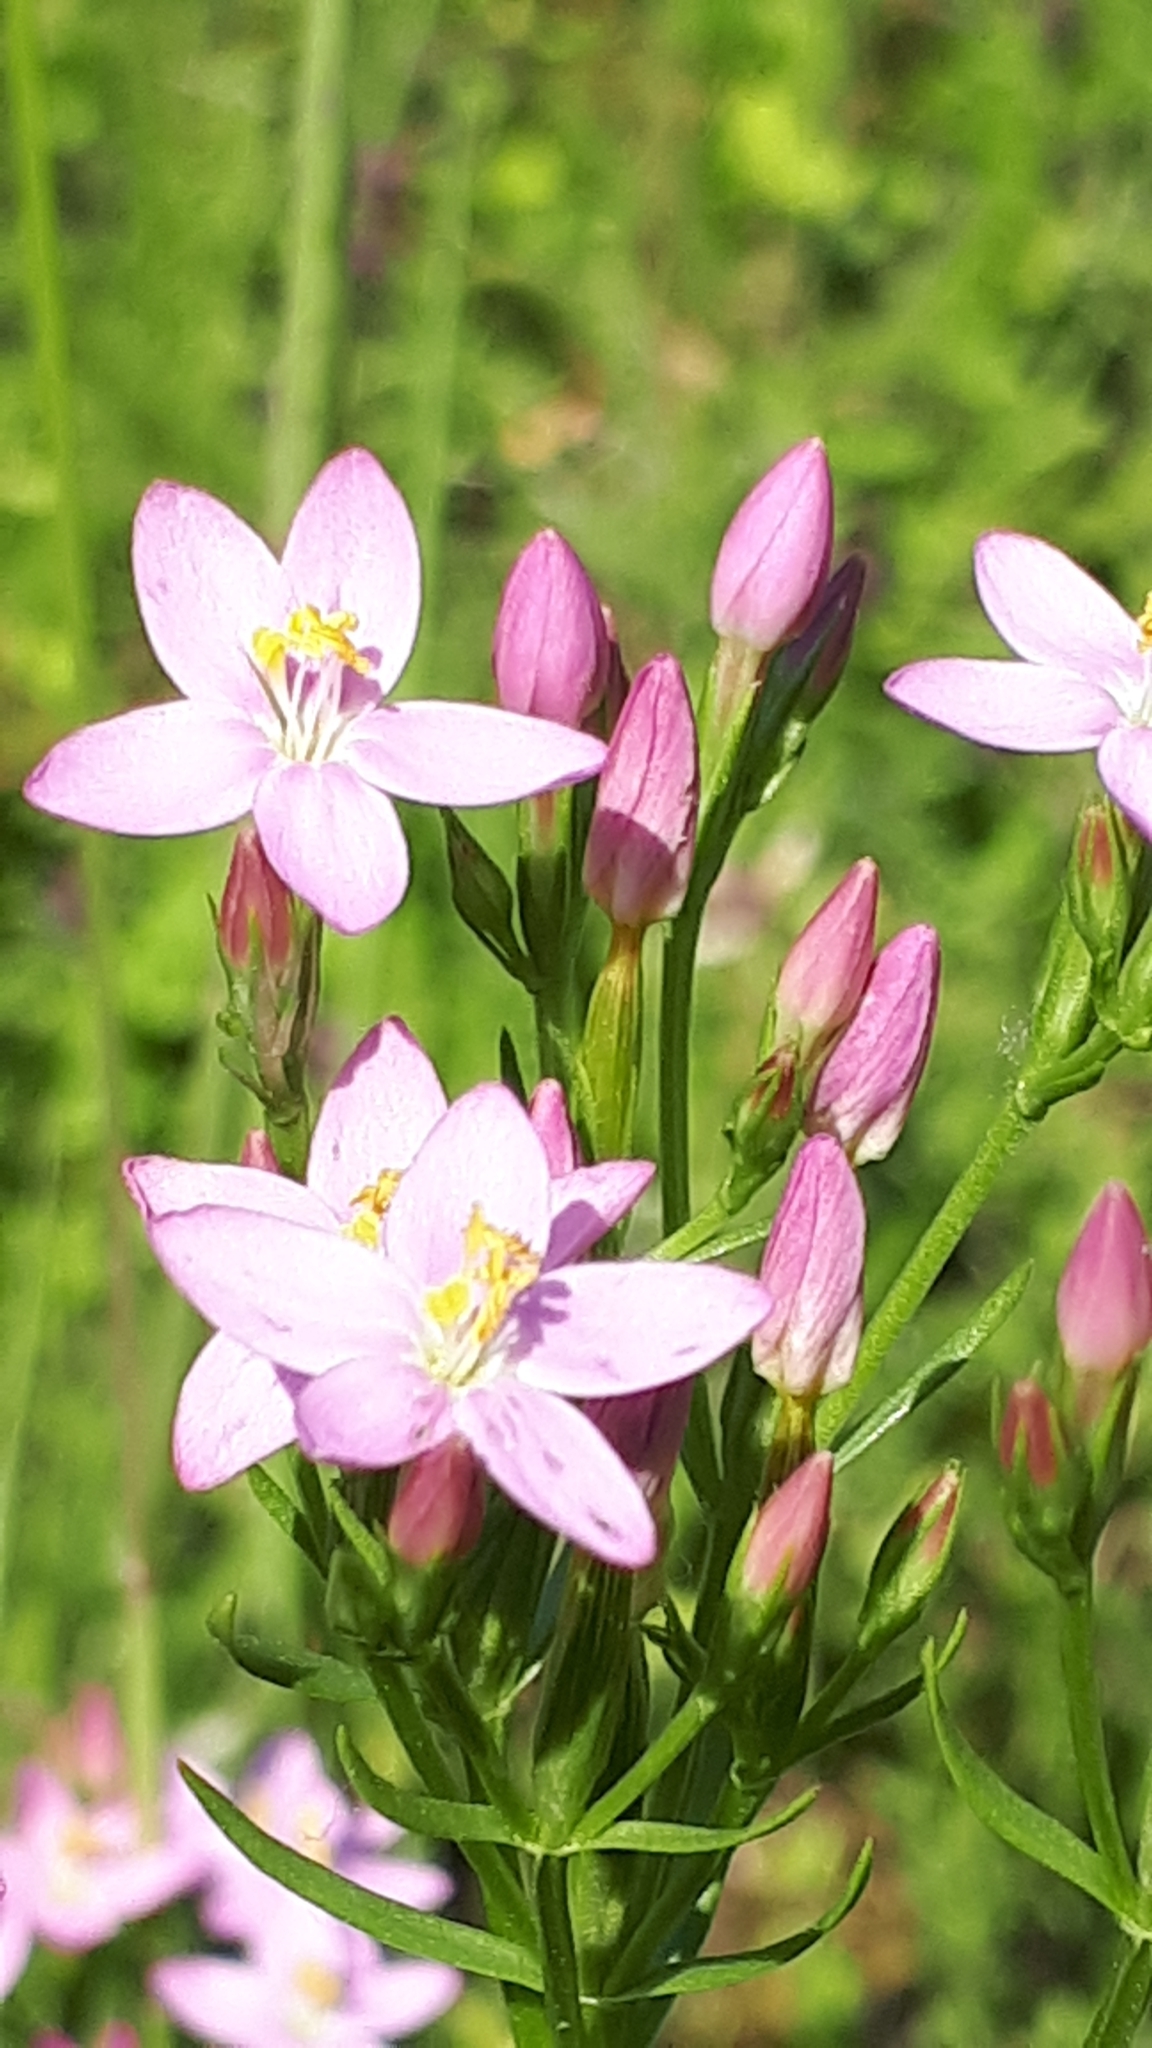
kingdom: Plantae
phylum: Tracheophyta
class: Magnoliopsida
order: Gentianales
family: Gentianaceae
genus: Centaurium
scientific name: Centaurium erythraea
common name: Common centaury
